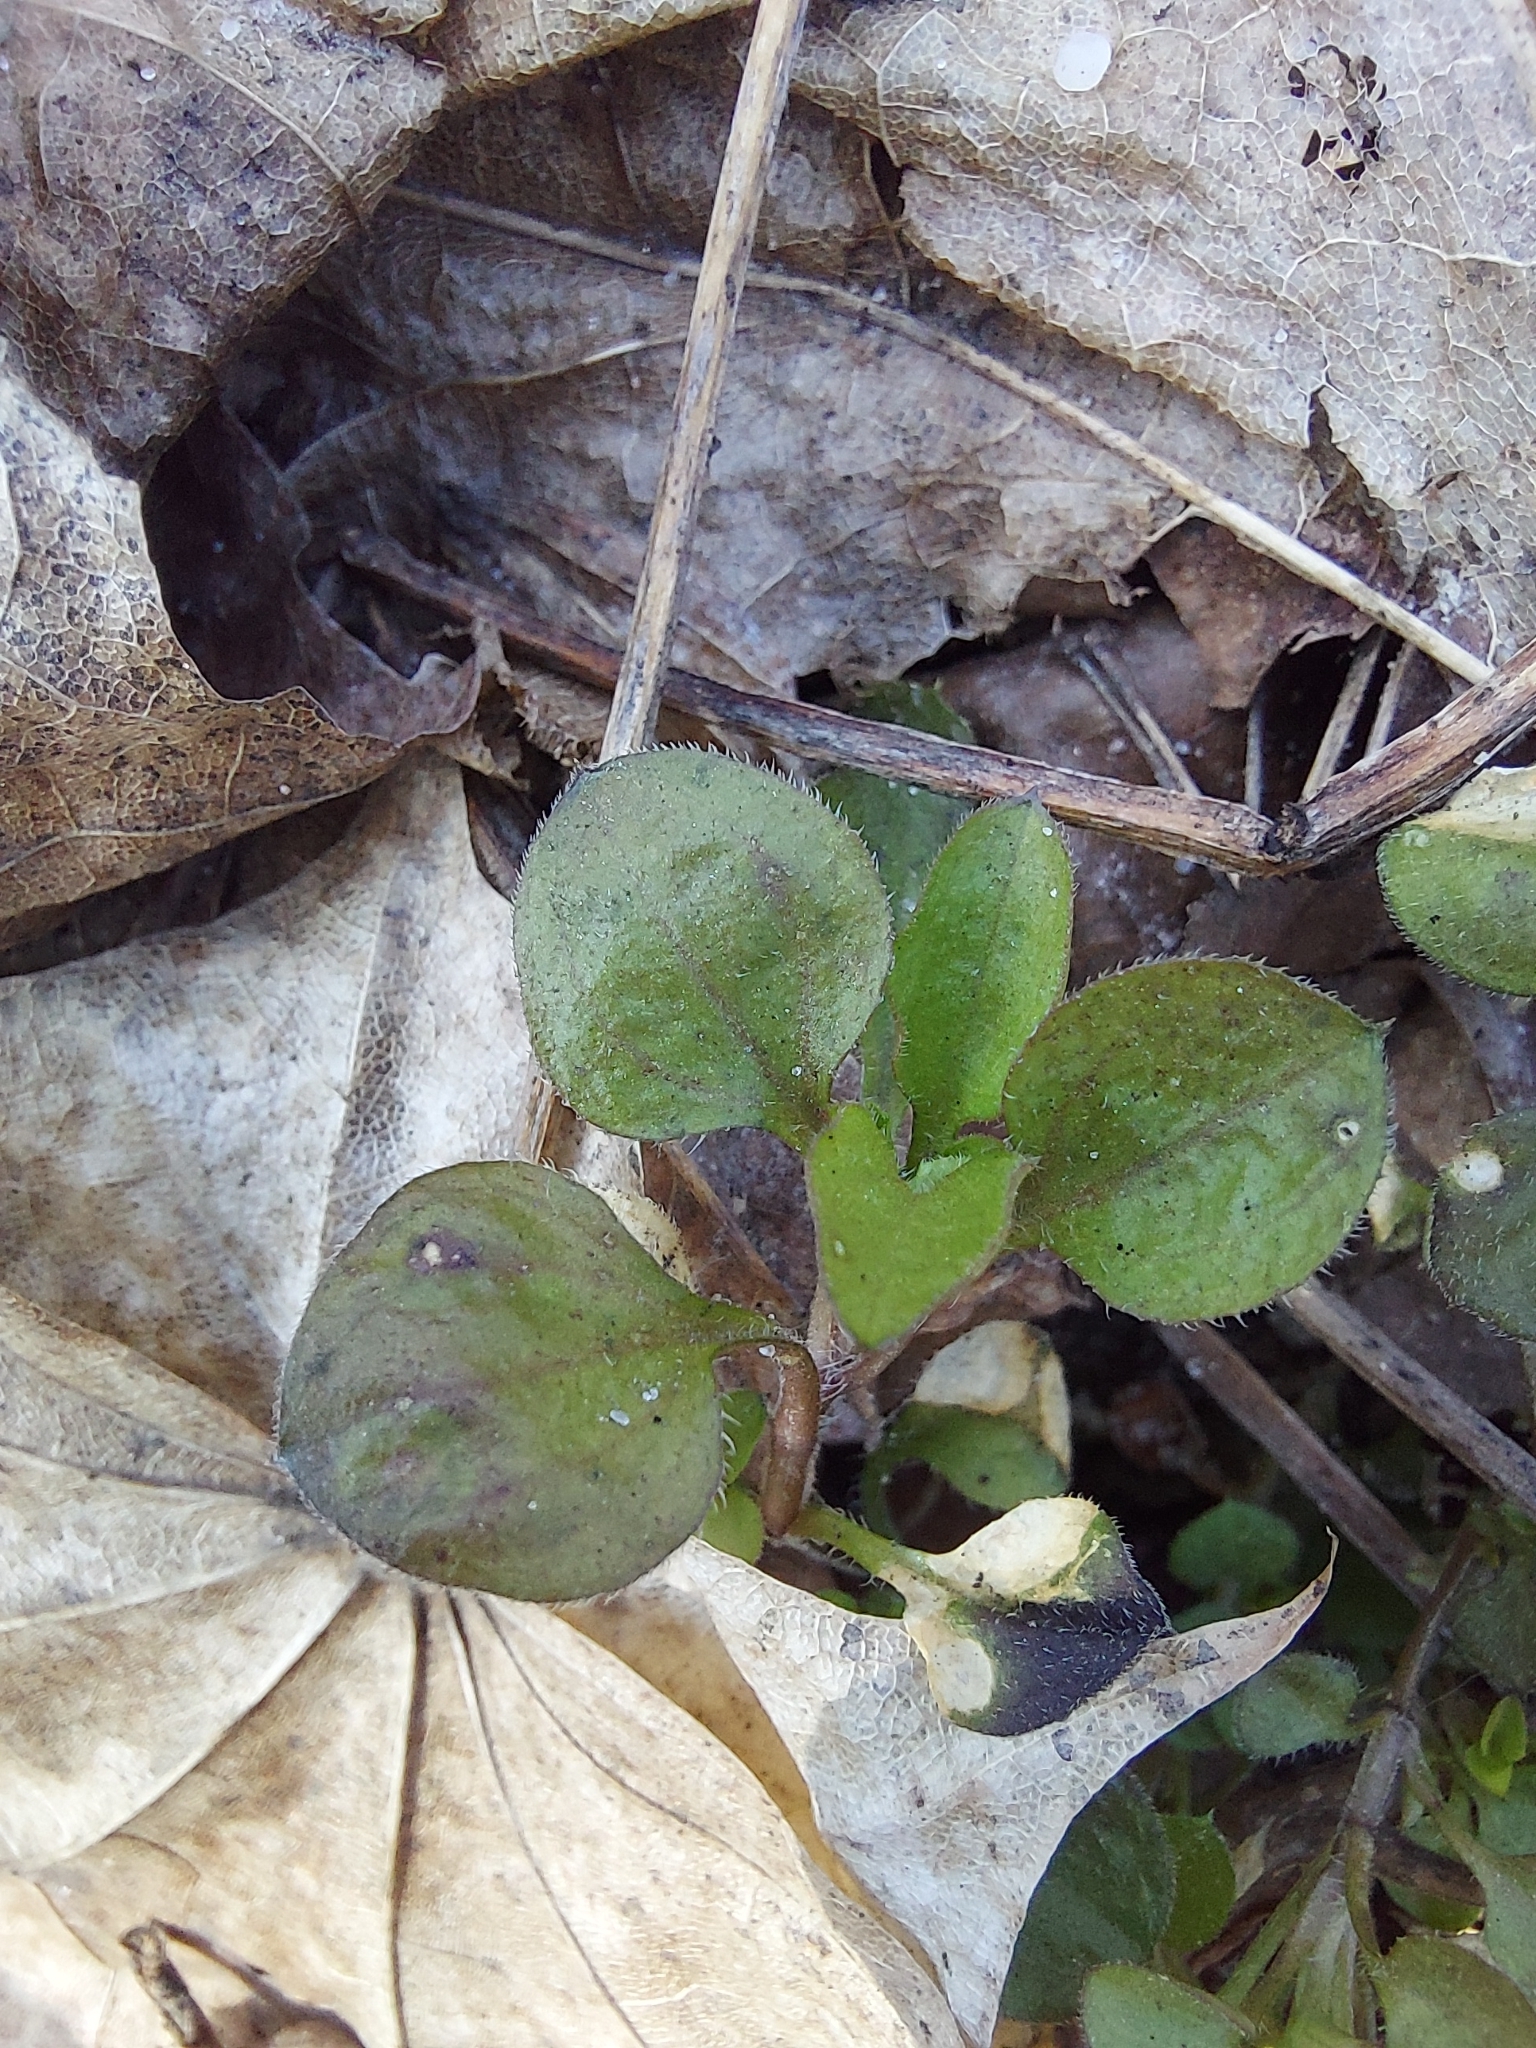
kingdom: Plantae
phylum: Tracheophyta
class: Magnoliopsida
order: Caryophyllales
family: Caryophyllaceae
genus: Moehringia
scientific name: Moehringia trinervia
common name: Three-nerved sandwort
